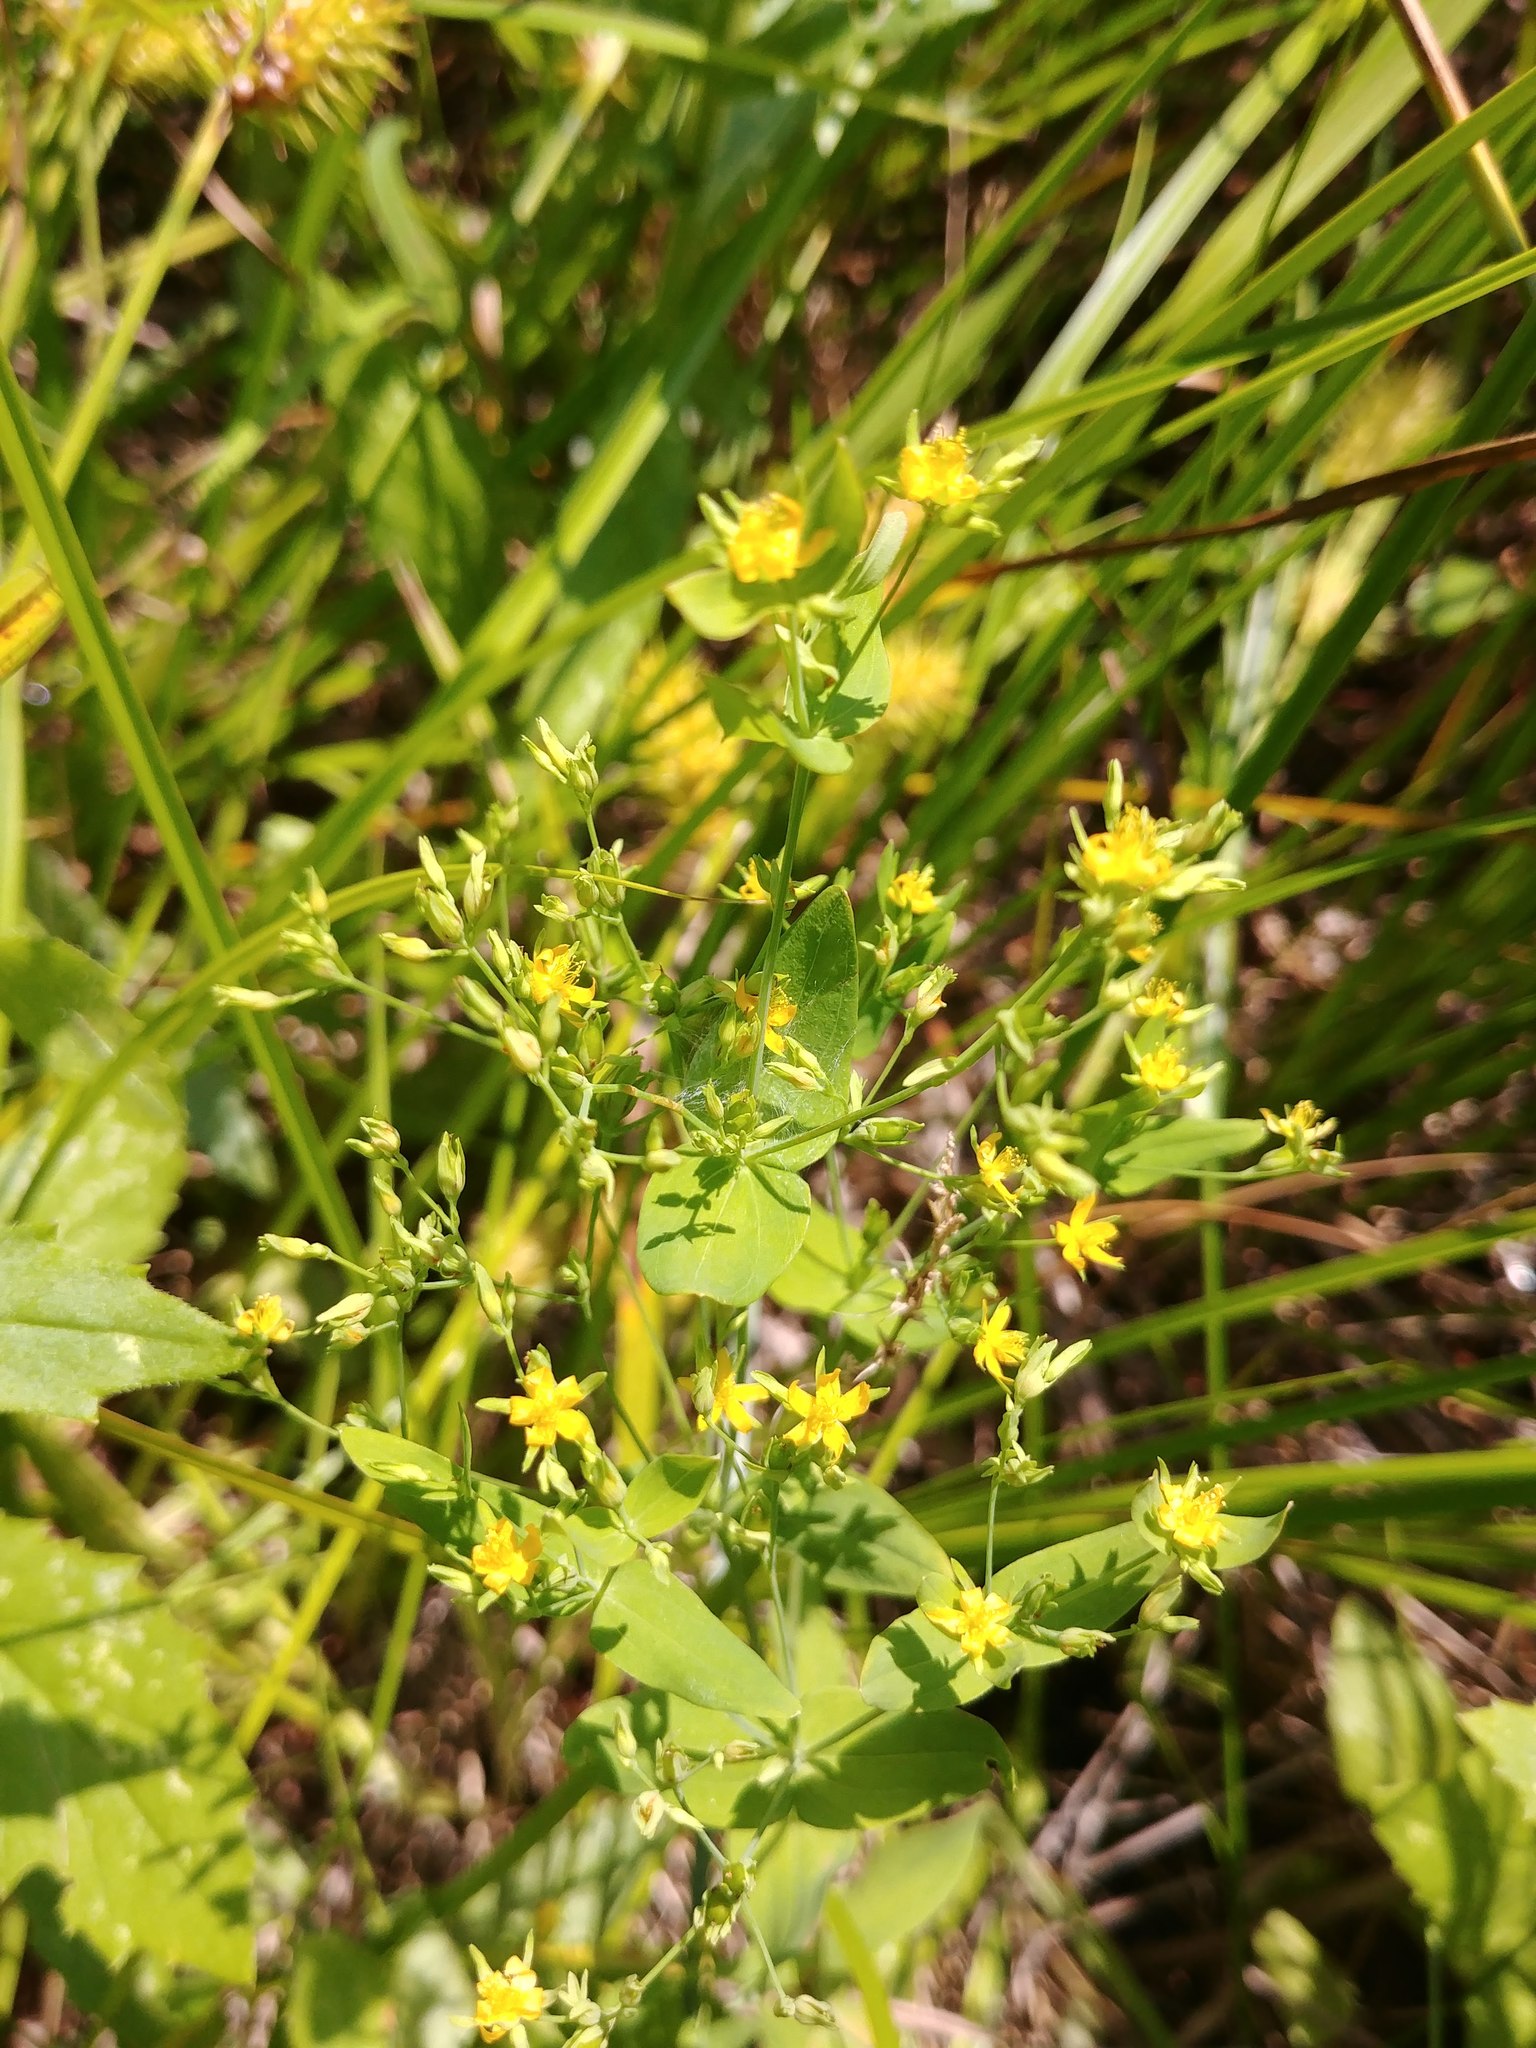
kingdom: Plantae
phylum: Tracheophyta
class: Magnoliopsida
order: Malpighiales
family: Hypericaceae
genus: Hypericum
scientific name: Hypericum mutilum
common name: Dwarf st. john's-wort
